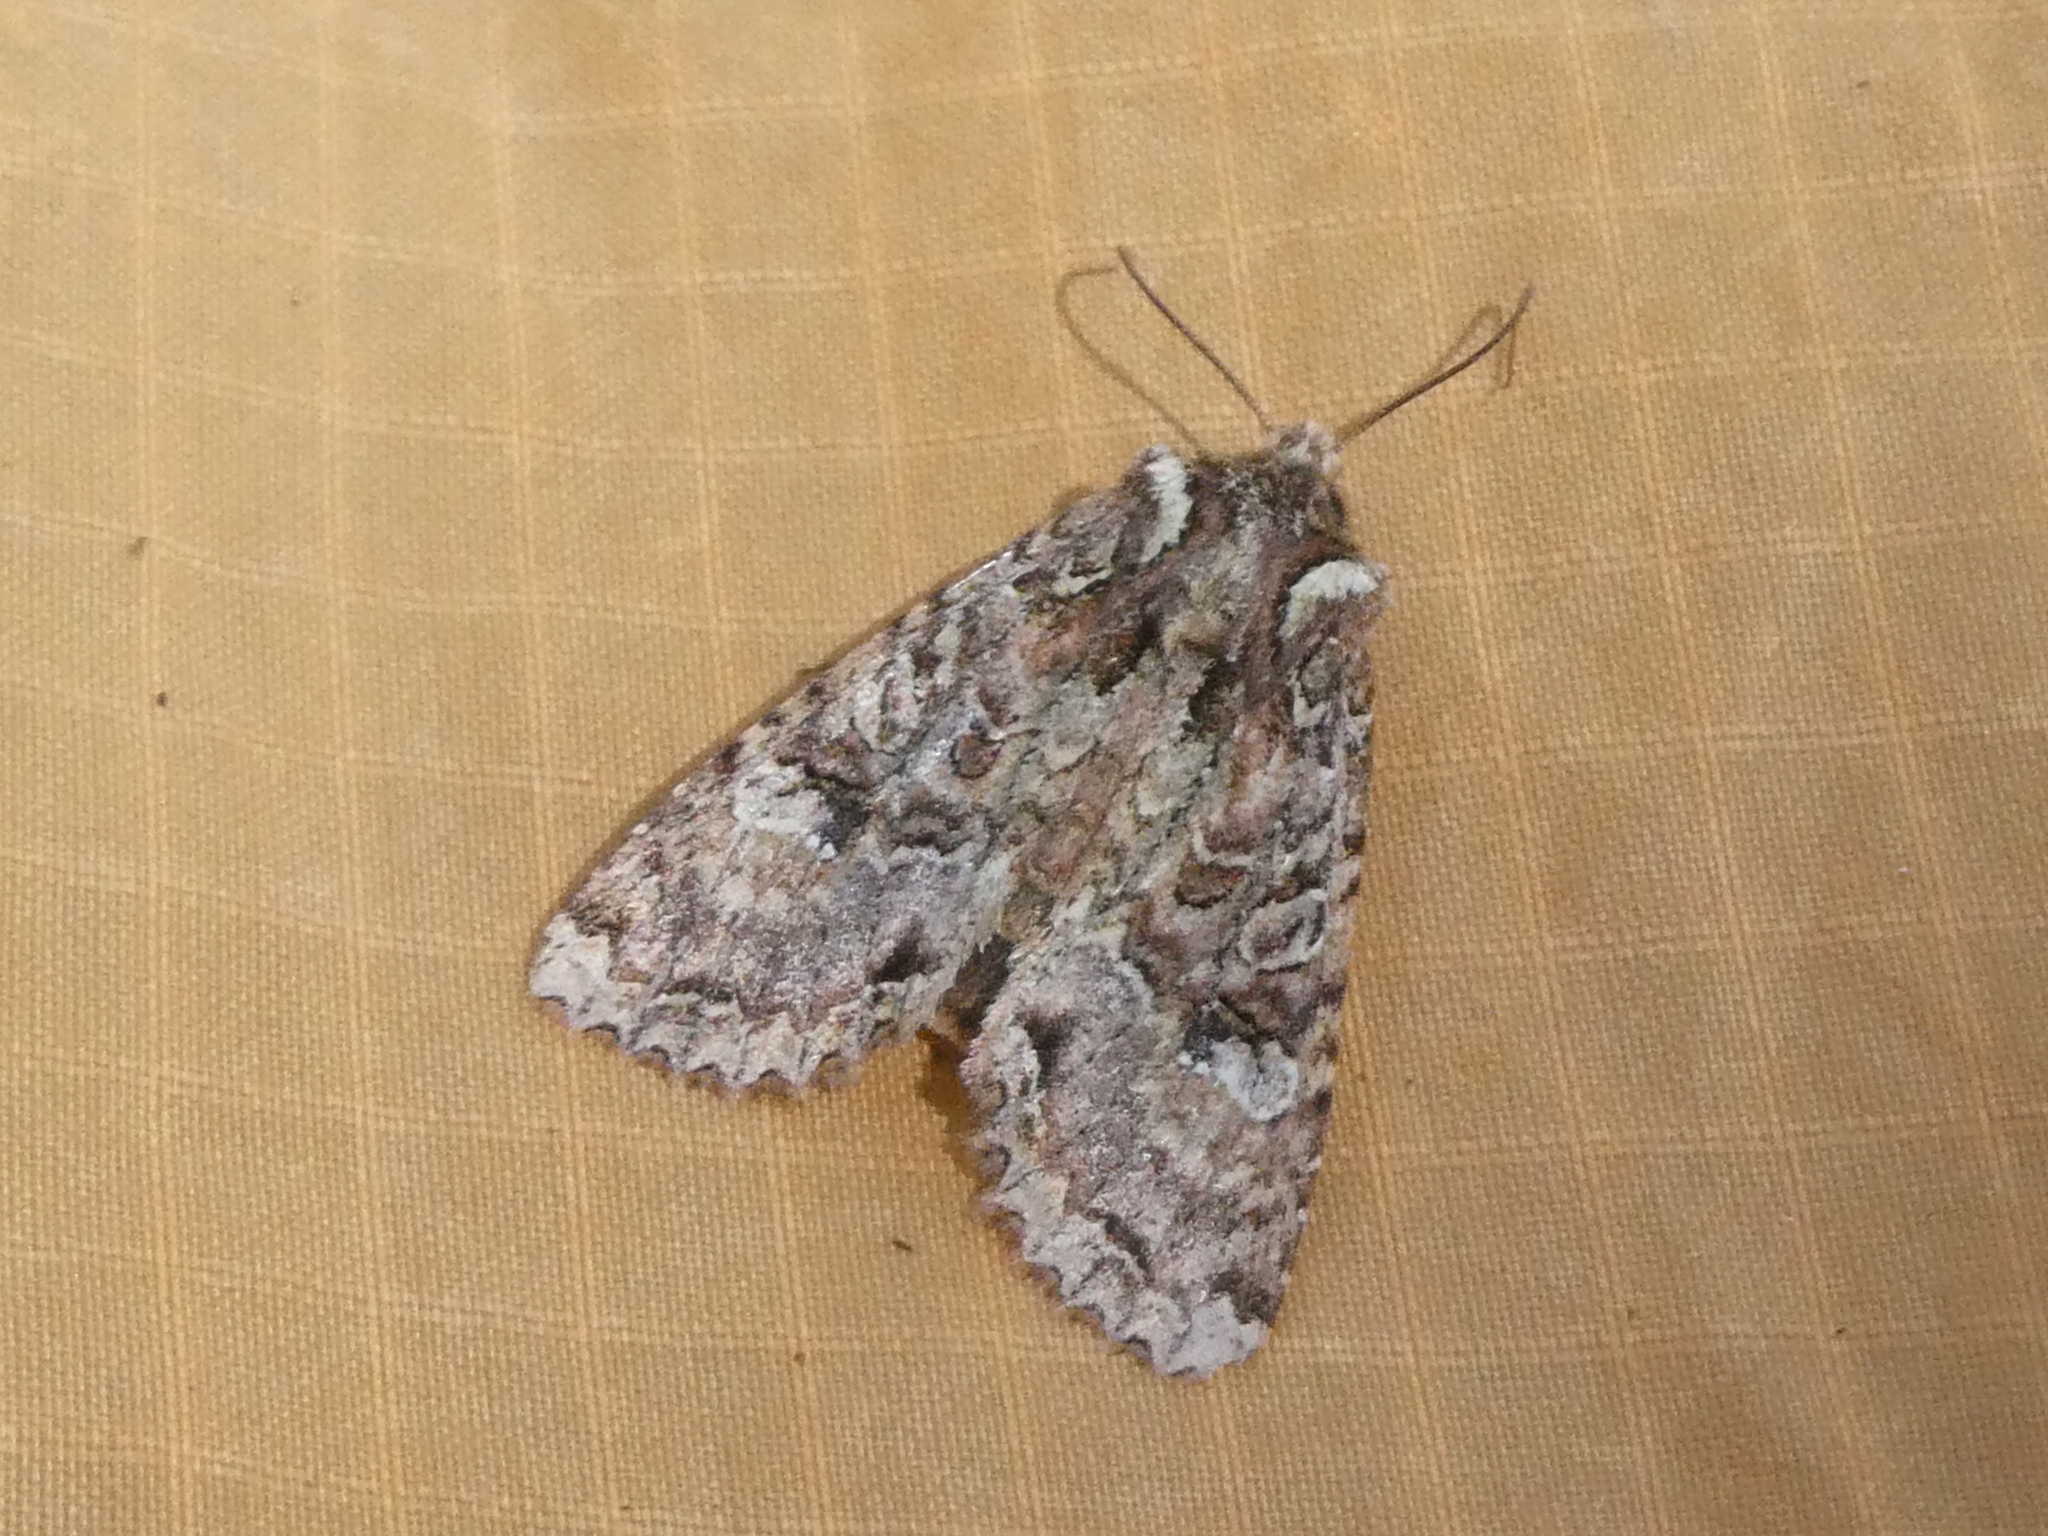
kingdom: Animalia
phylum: Arthropoda
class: Insecta
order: Lepidoptera
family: Noctuidae
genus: Meterana
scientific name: Meterana
